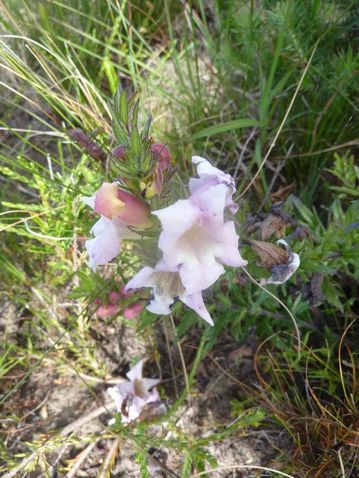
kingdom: Plantae
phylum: Tracheophyta
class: Magnoliopsida
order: Lamiales
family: Orobanchaceae
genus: Graderia
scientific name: Graderia scabra
